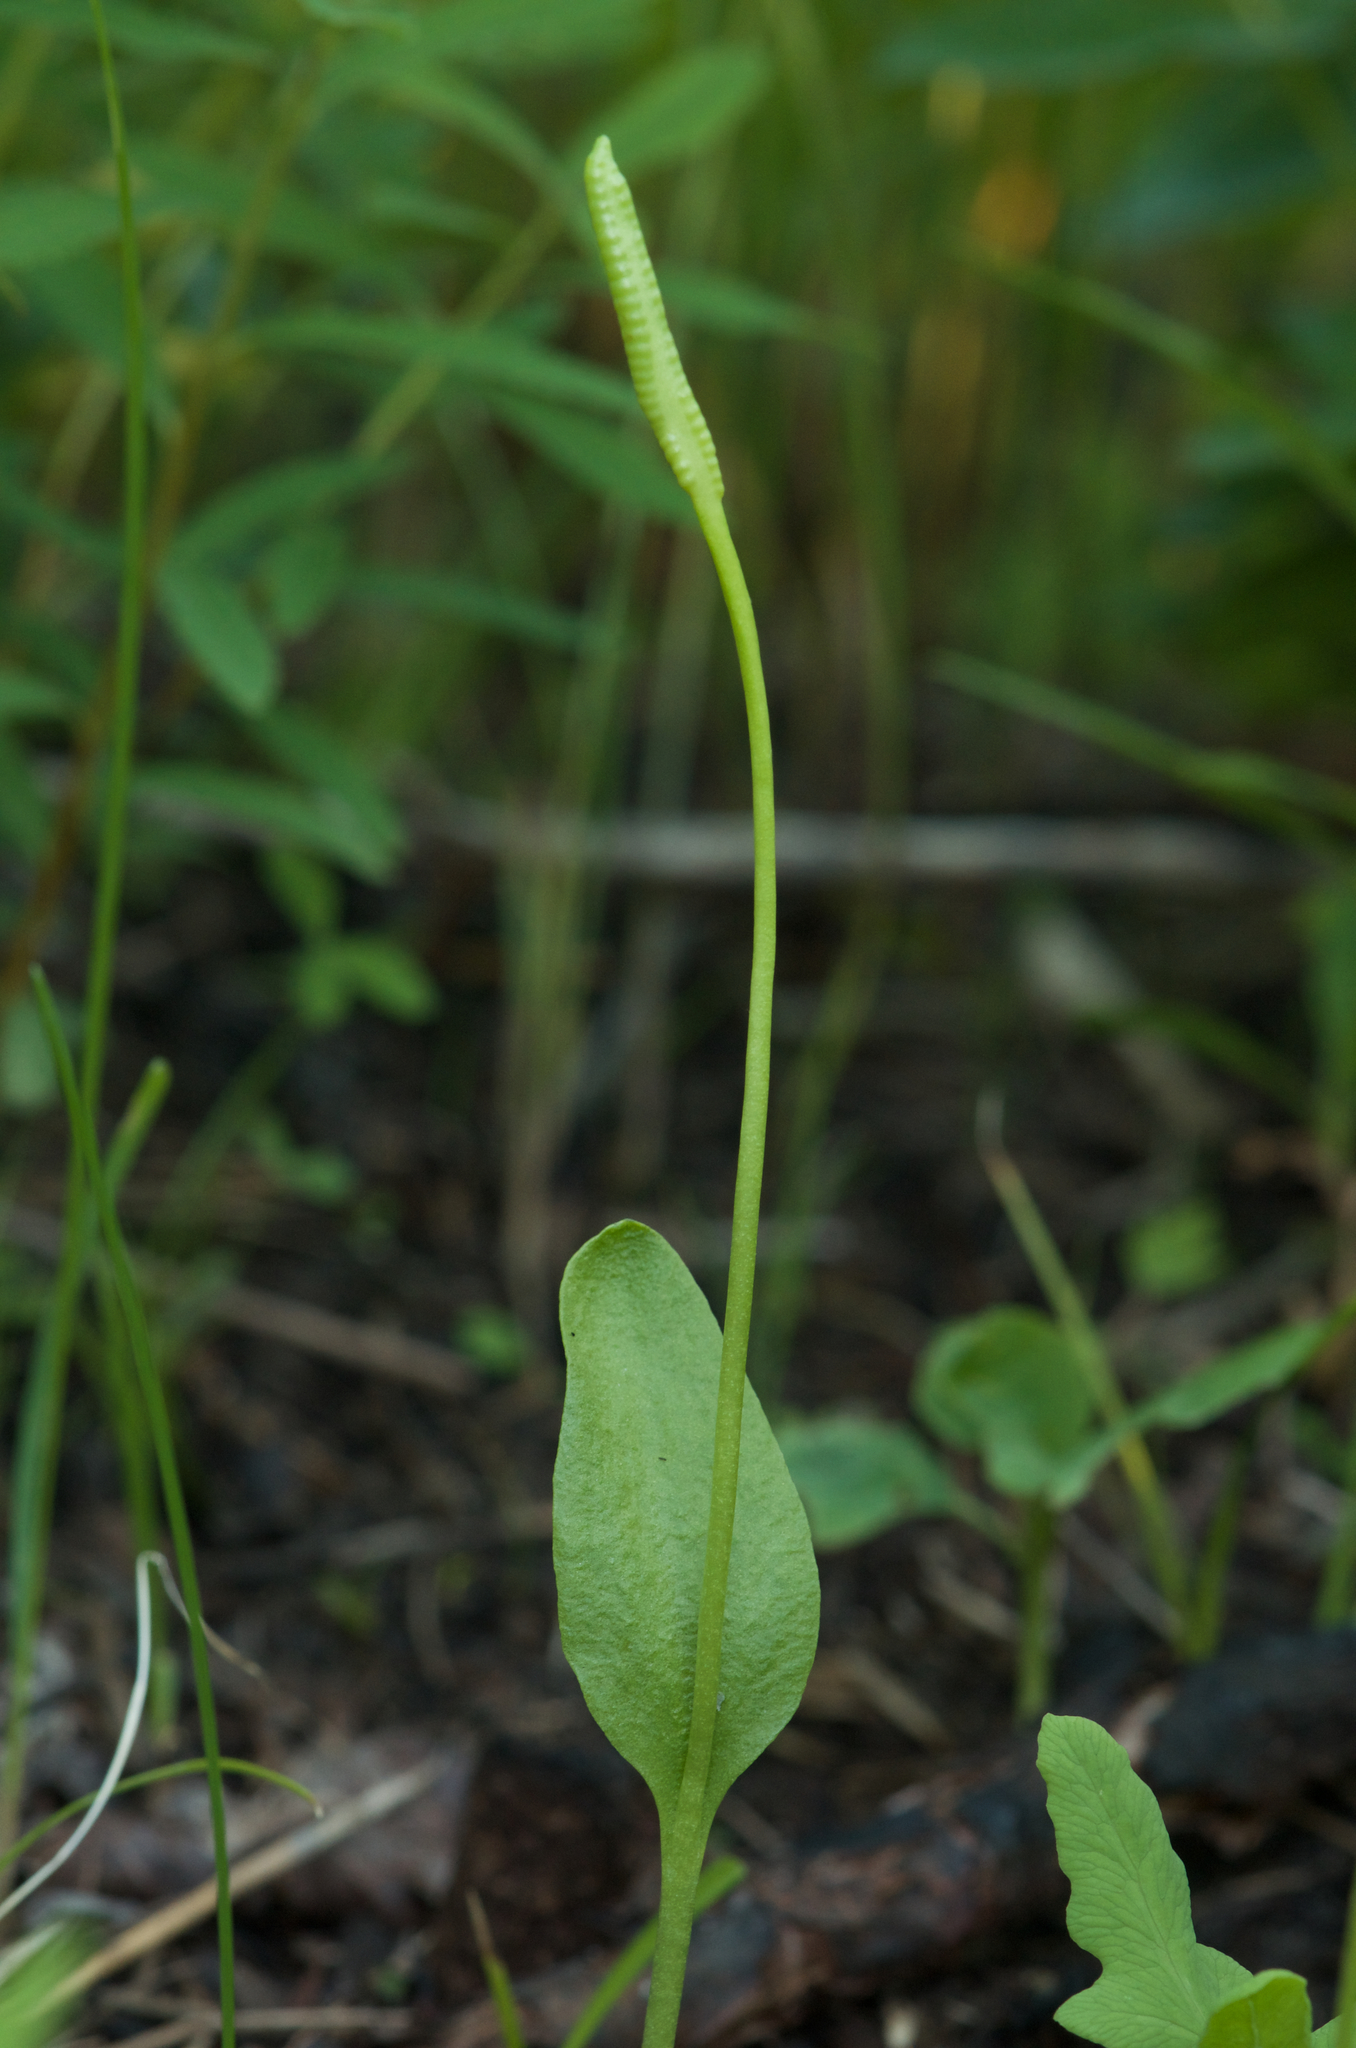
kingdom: Plantae
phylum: Tracheophyta
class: Polypodiopsida
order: Ophioglossales
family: Ophioglossaceae
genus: Ophioglossum
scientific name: Ophioglossum pusillum
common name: Northern adder's-tongue
